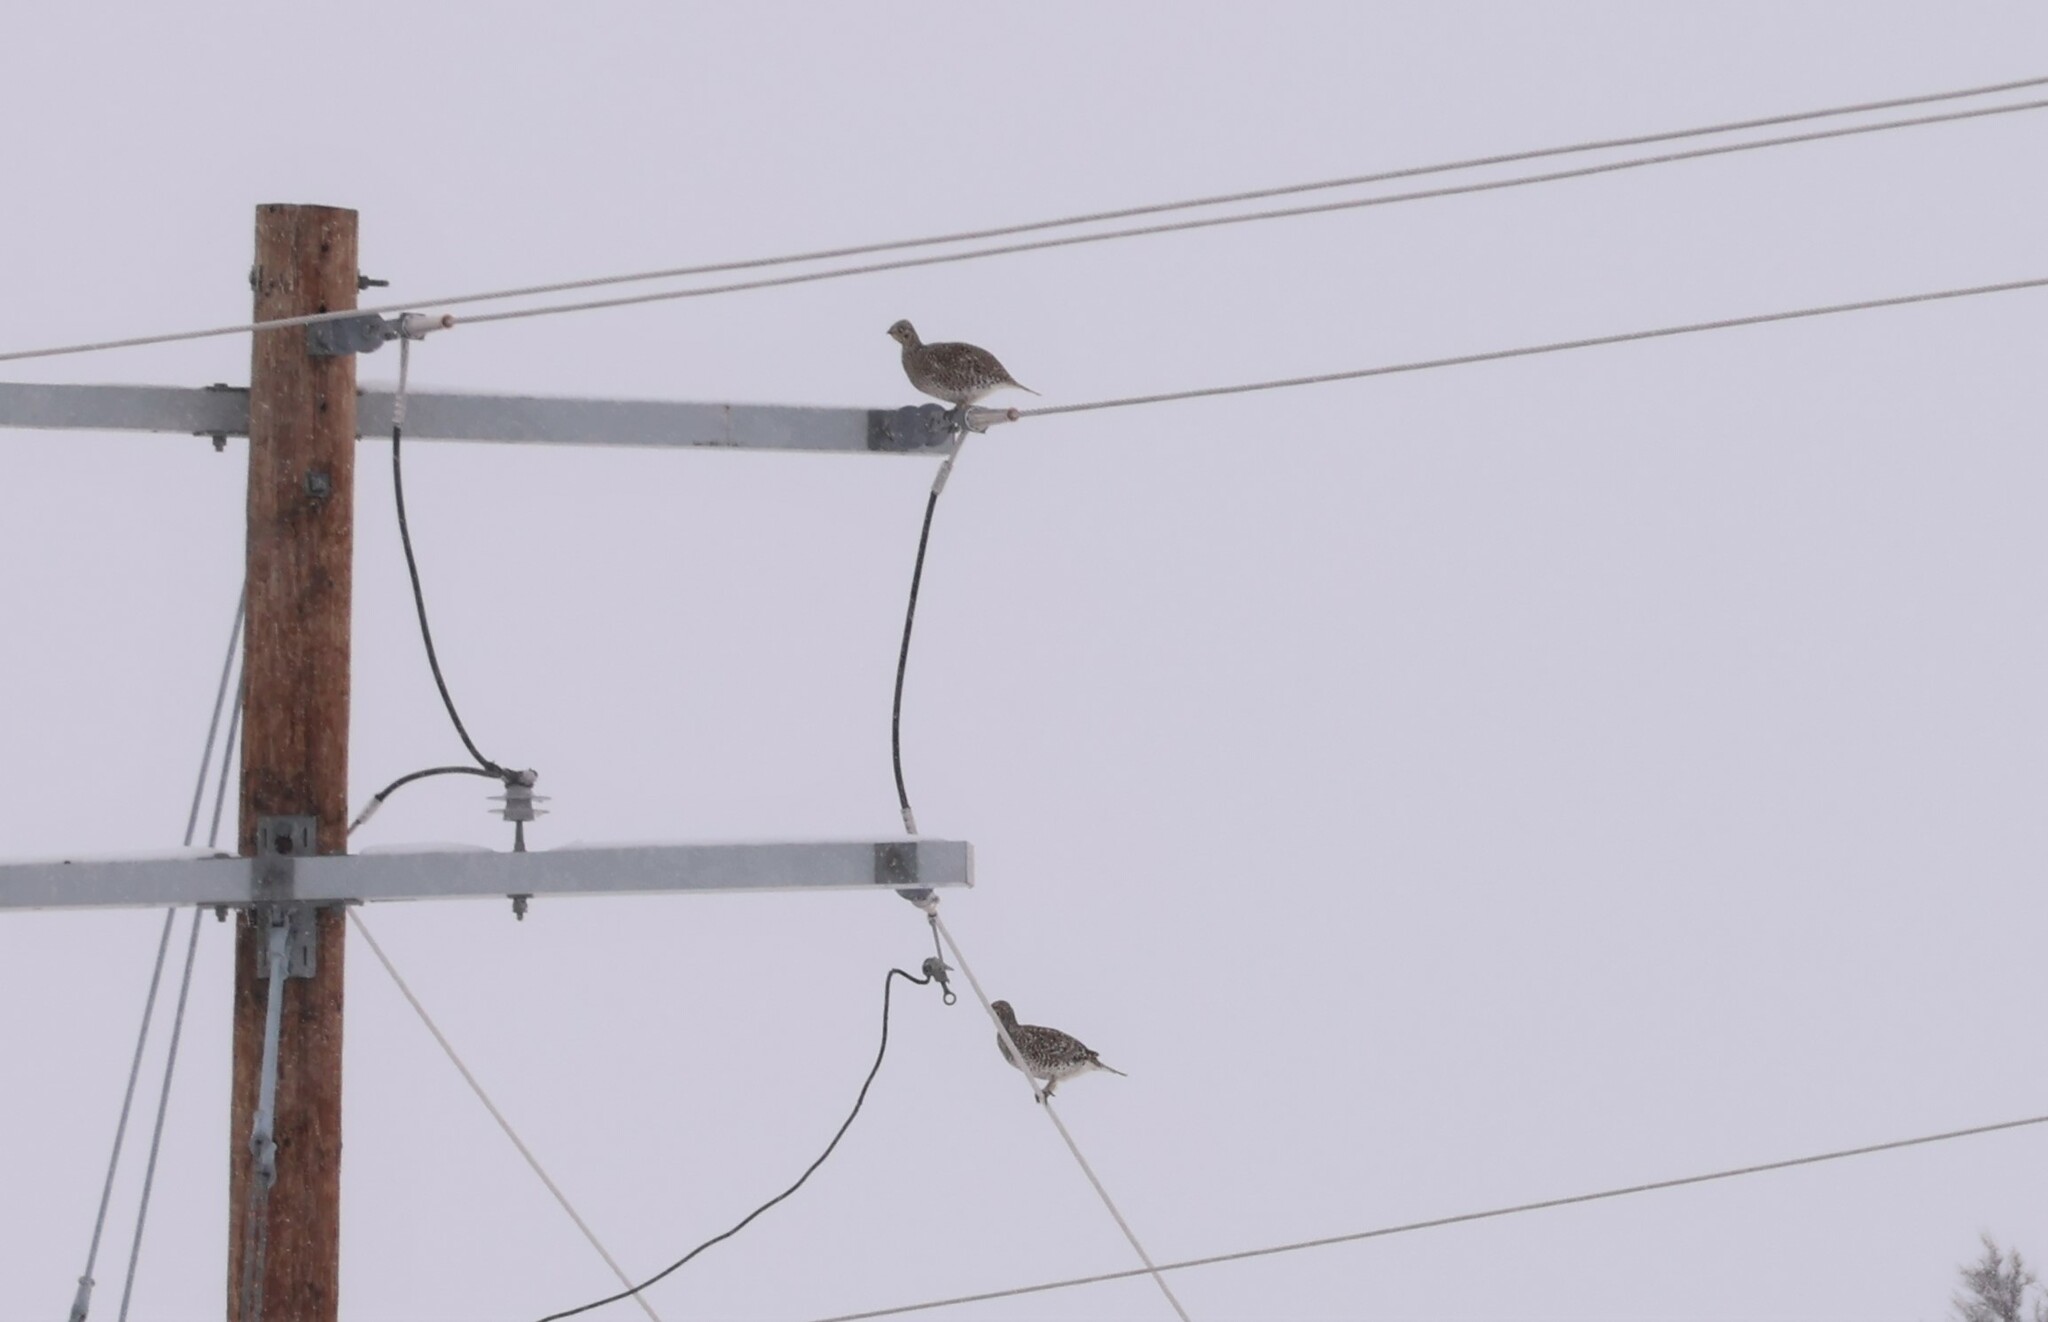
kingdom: Animalia
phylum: Chordata
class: Aves
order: Galliformes
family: Phasianidae
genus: Tympanuchus
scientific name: Tympanuchus phasianellus
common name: Sharp-tailed grouse
